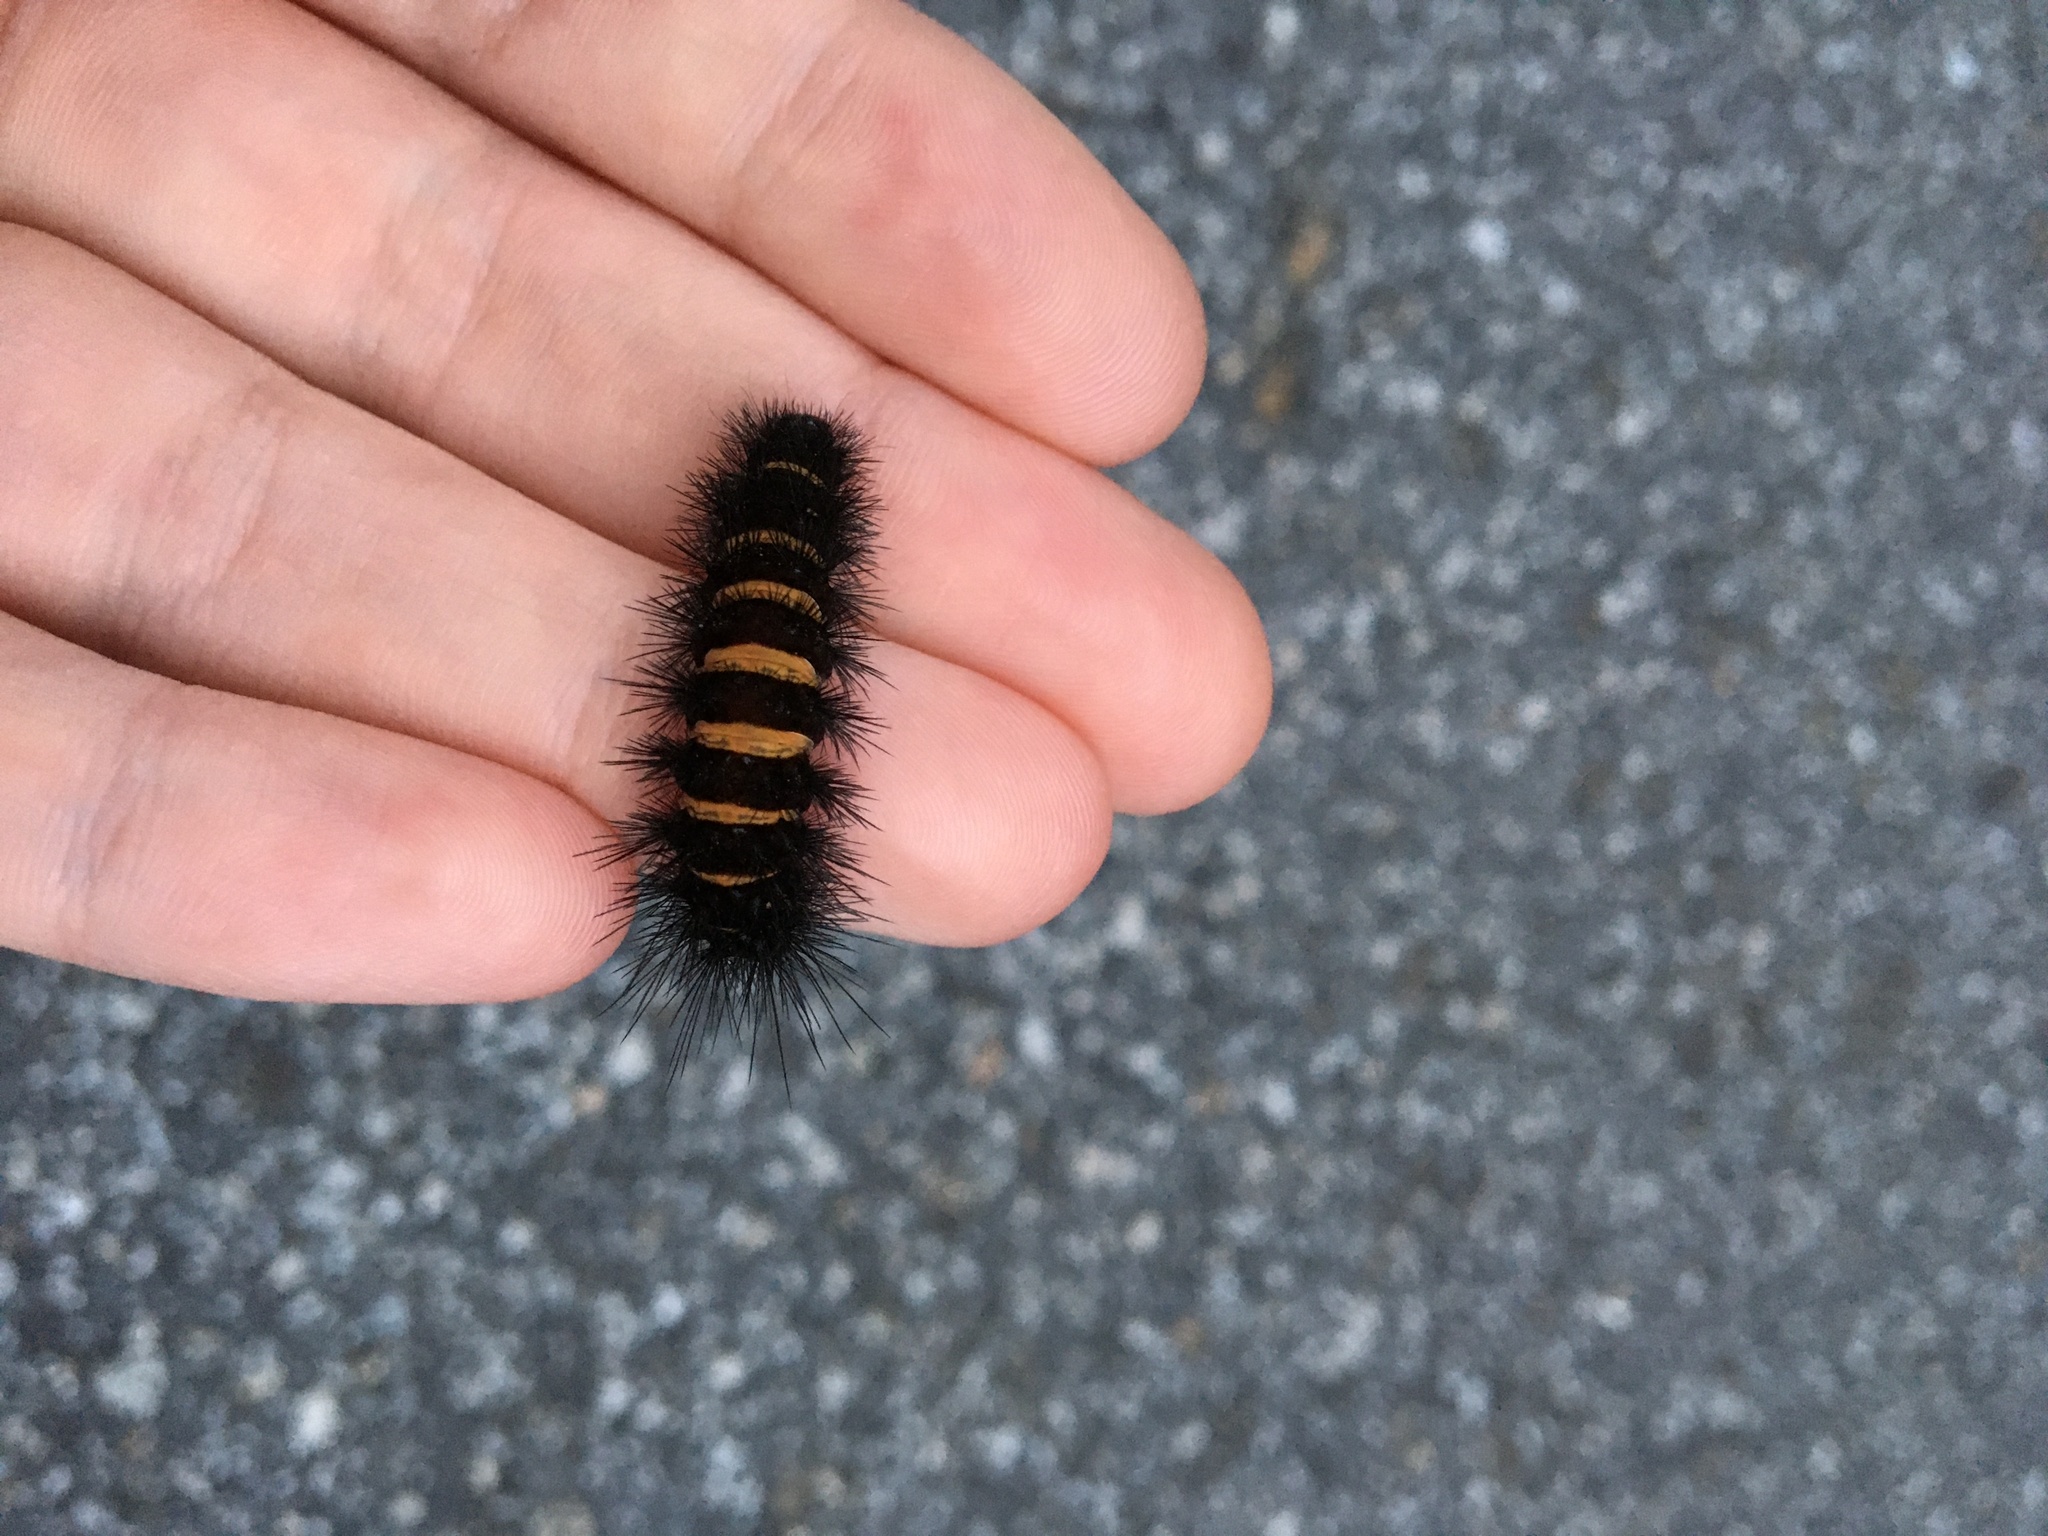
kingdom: Animalia
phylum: Arthropoda
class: Insecta
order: Lepidoptera
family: Erebidae
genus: Spilosoma
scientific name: Spilosoma congrua
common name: Agreeable tiger moth
